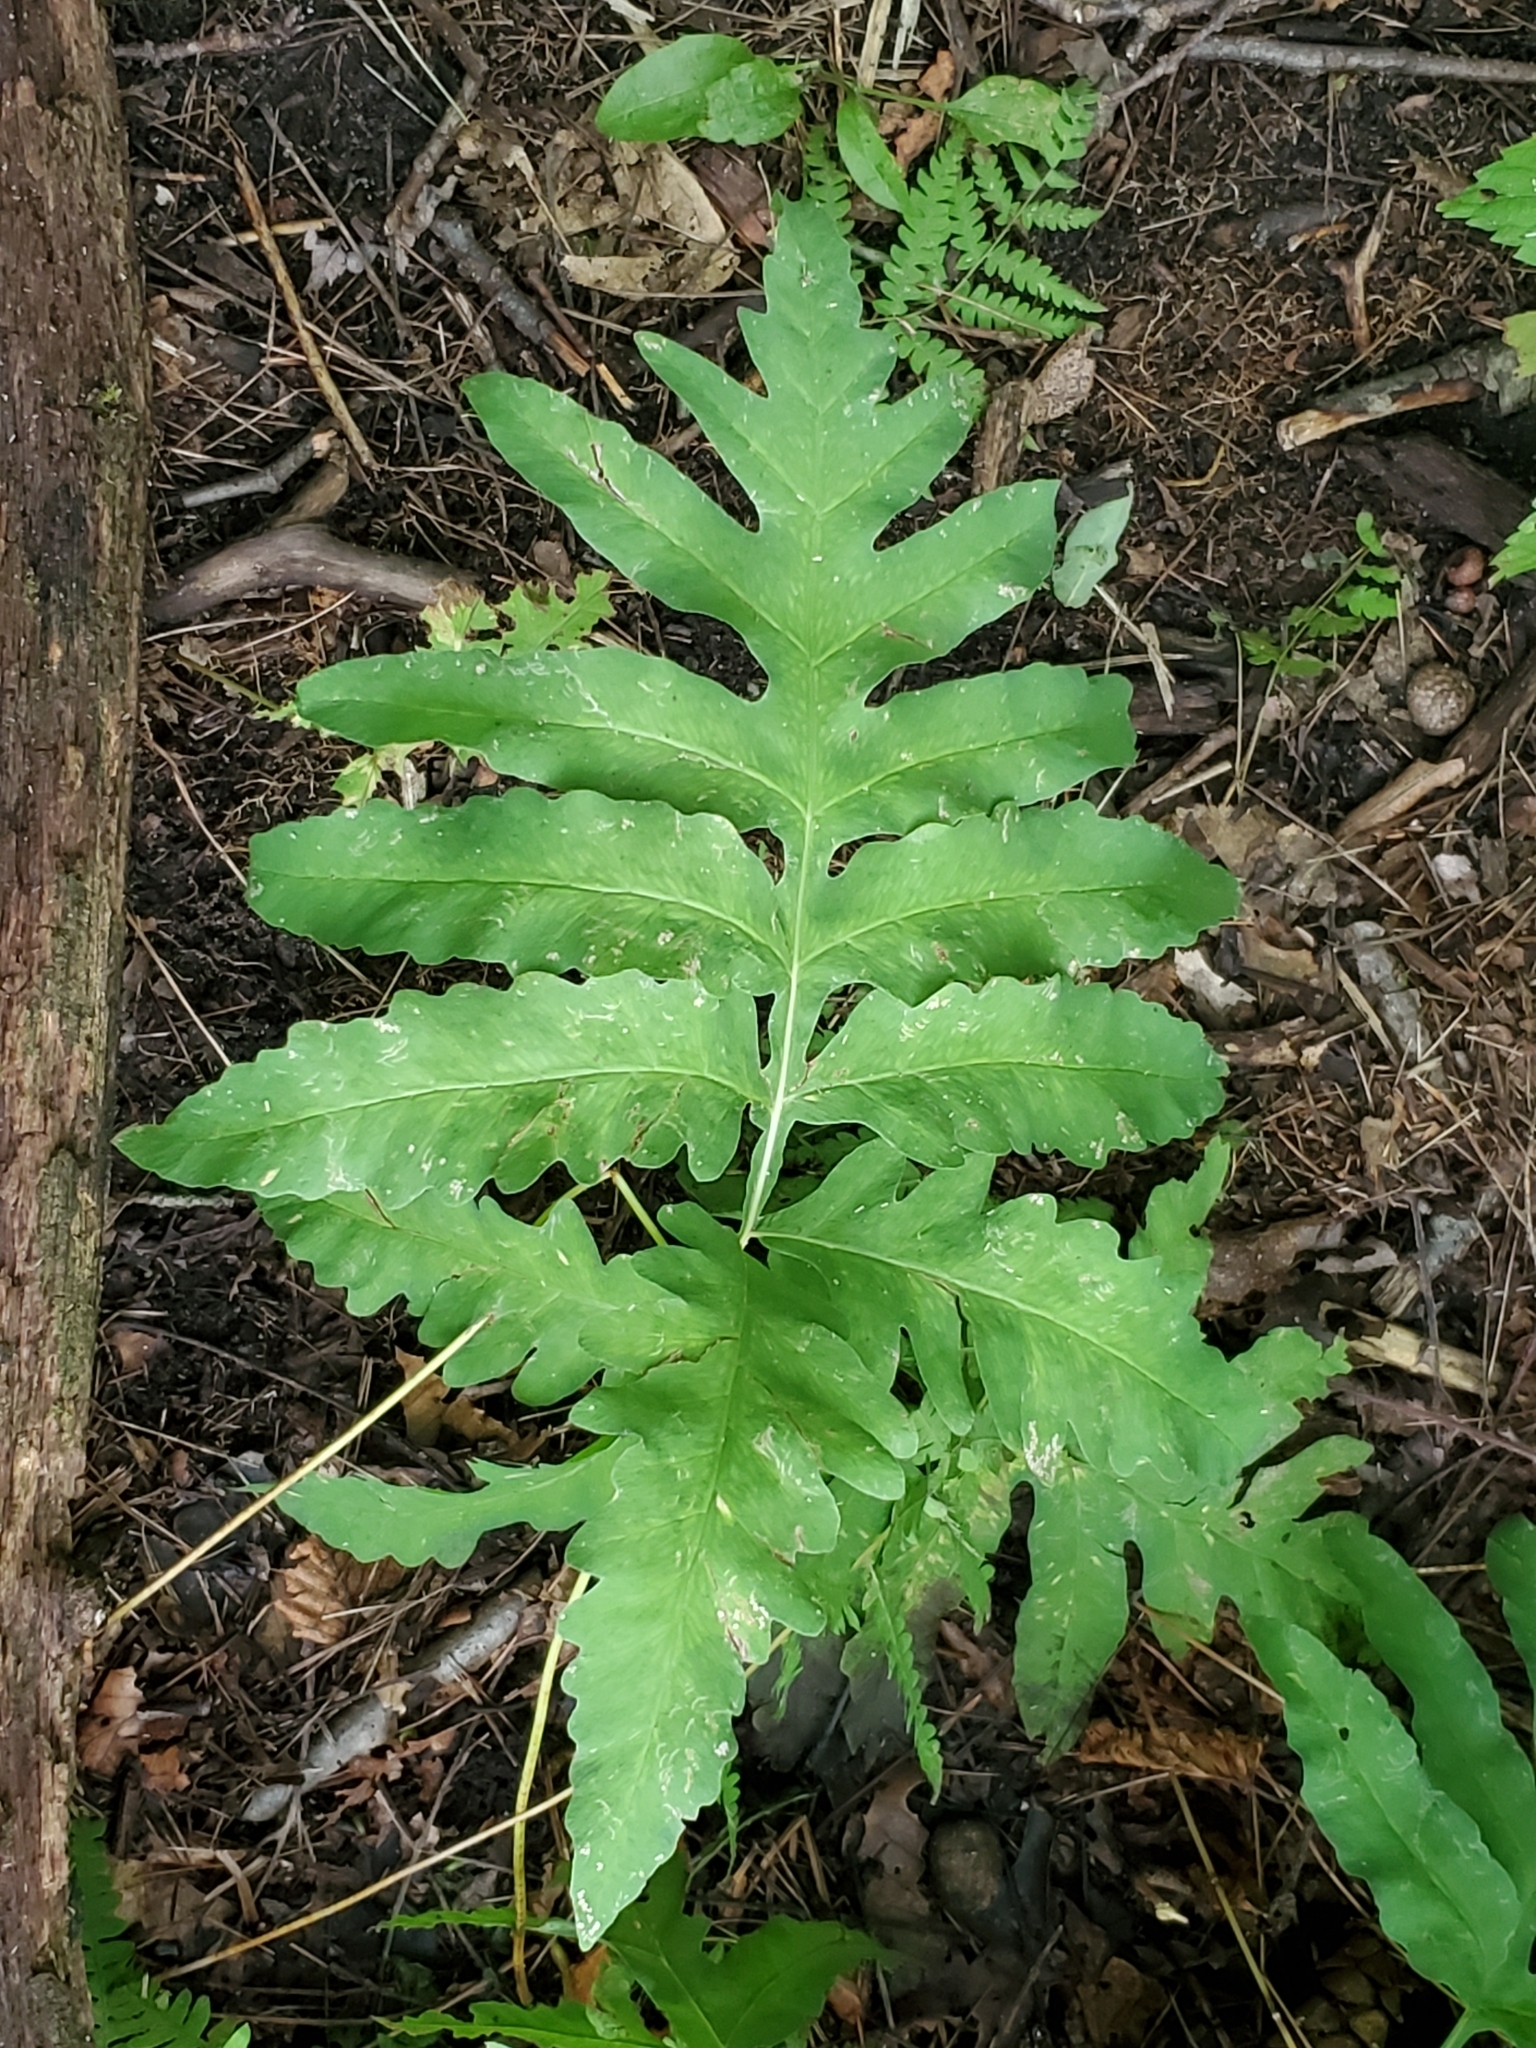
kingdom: Plantae
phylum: Tracheophyta
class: Polypodiopsida
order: Polypodiales
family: Onocleaceae
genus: Onoclea
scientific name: Onoclea sensibilis
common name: Sensitive fern
